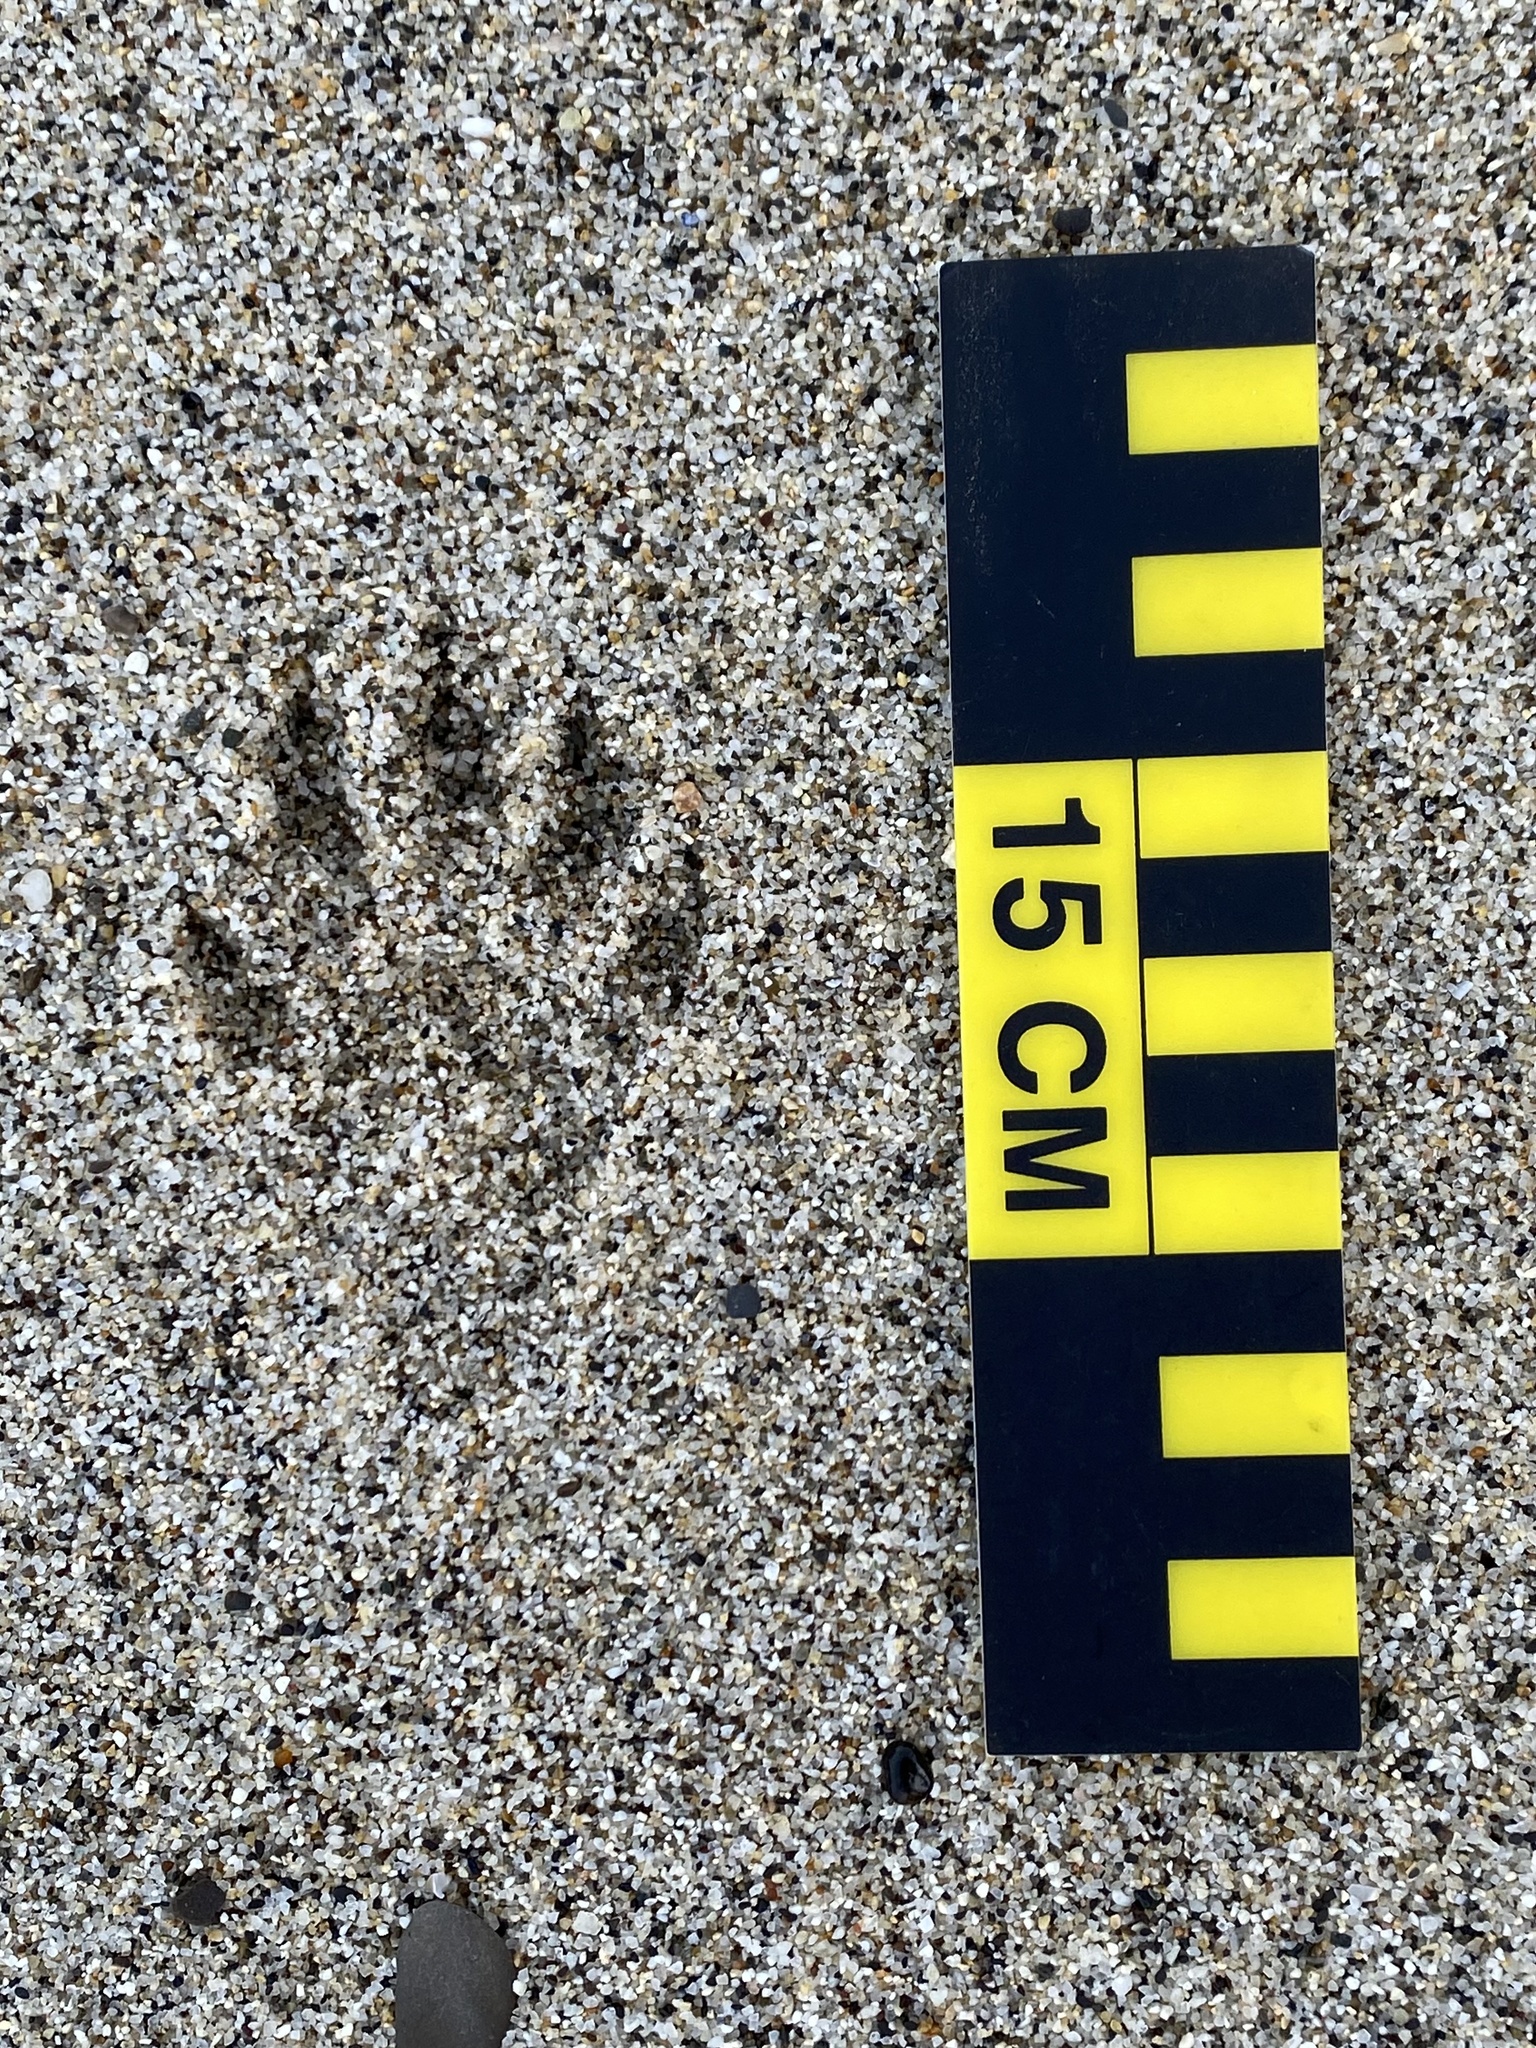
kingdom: Animalia
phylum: Chordata
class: Mammalia
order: Carnivora
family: Procyonidae
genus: Procyon
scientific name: Procyon lotor
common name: Raccoon
